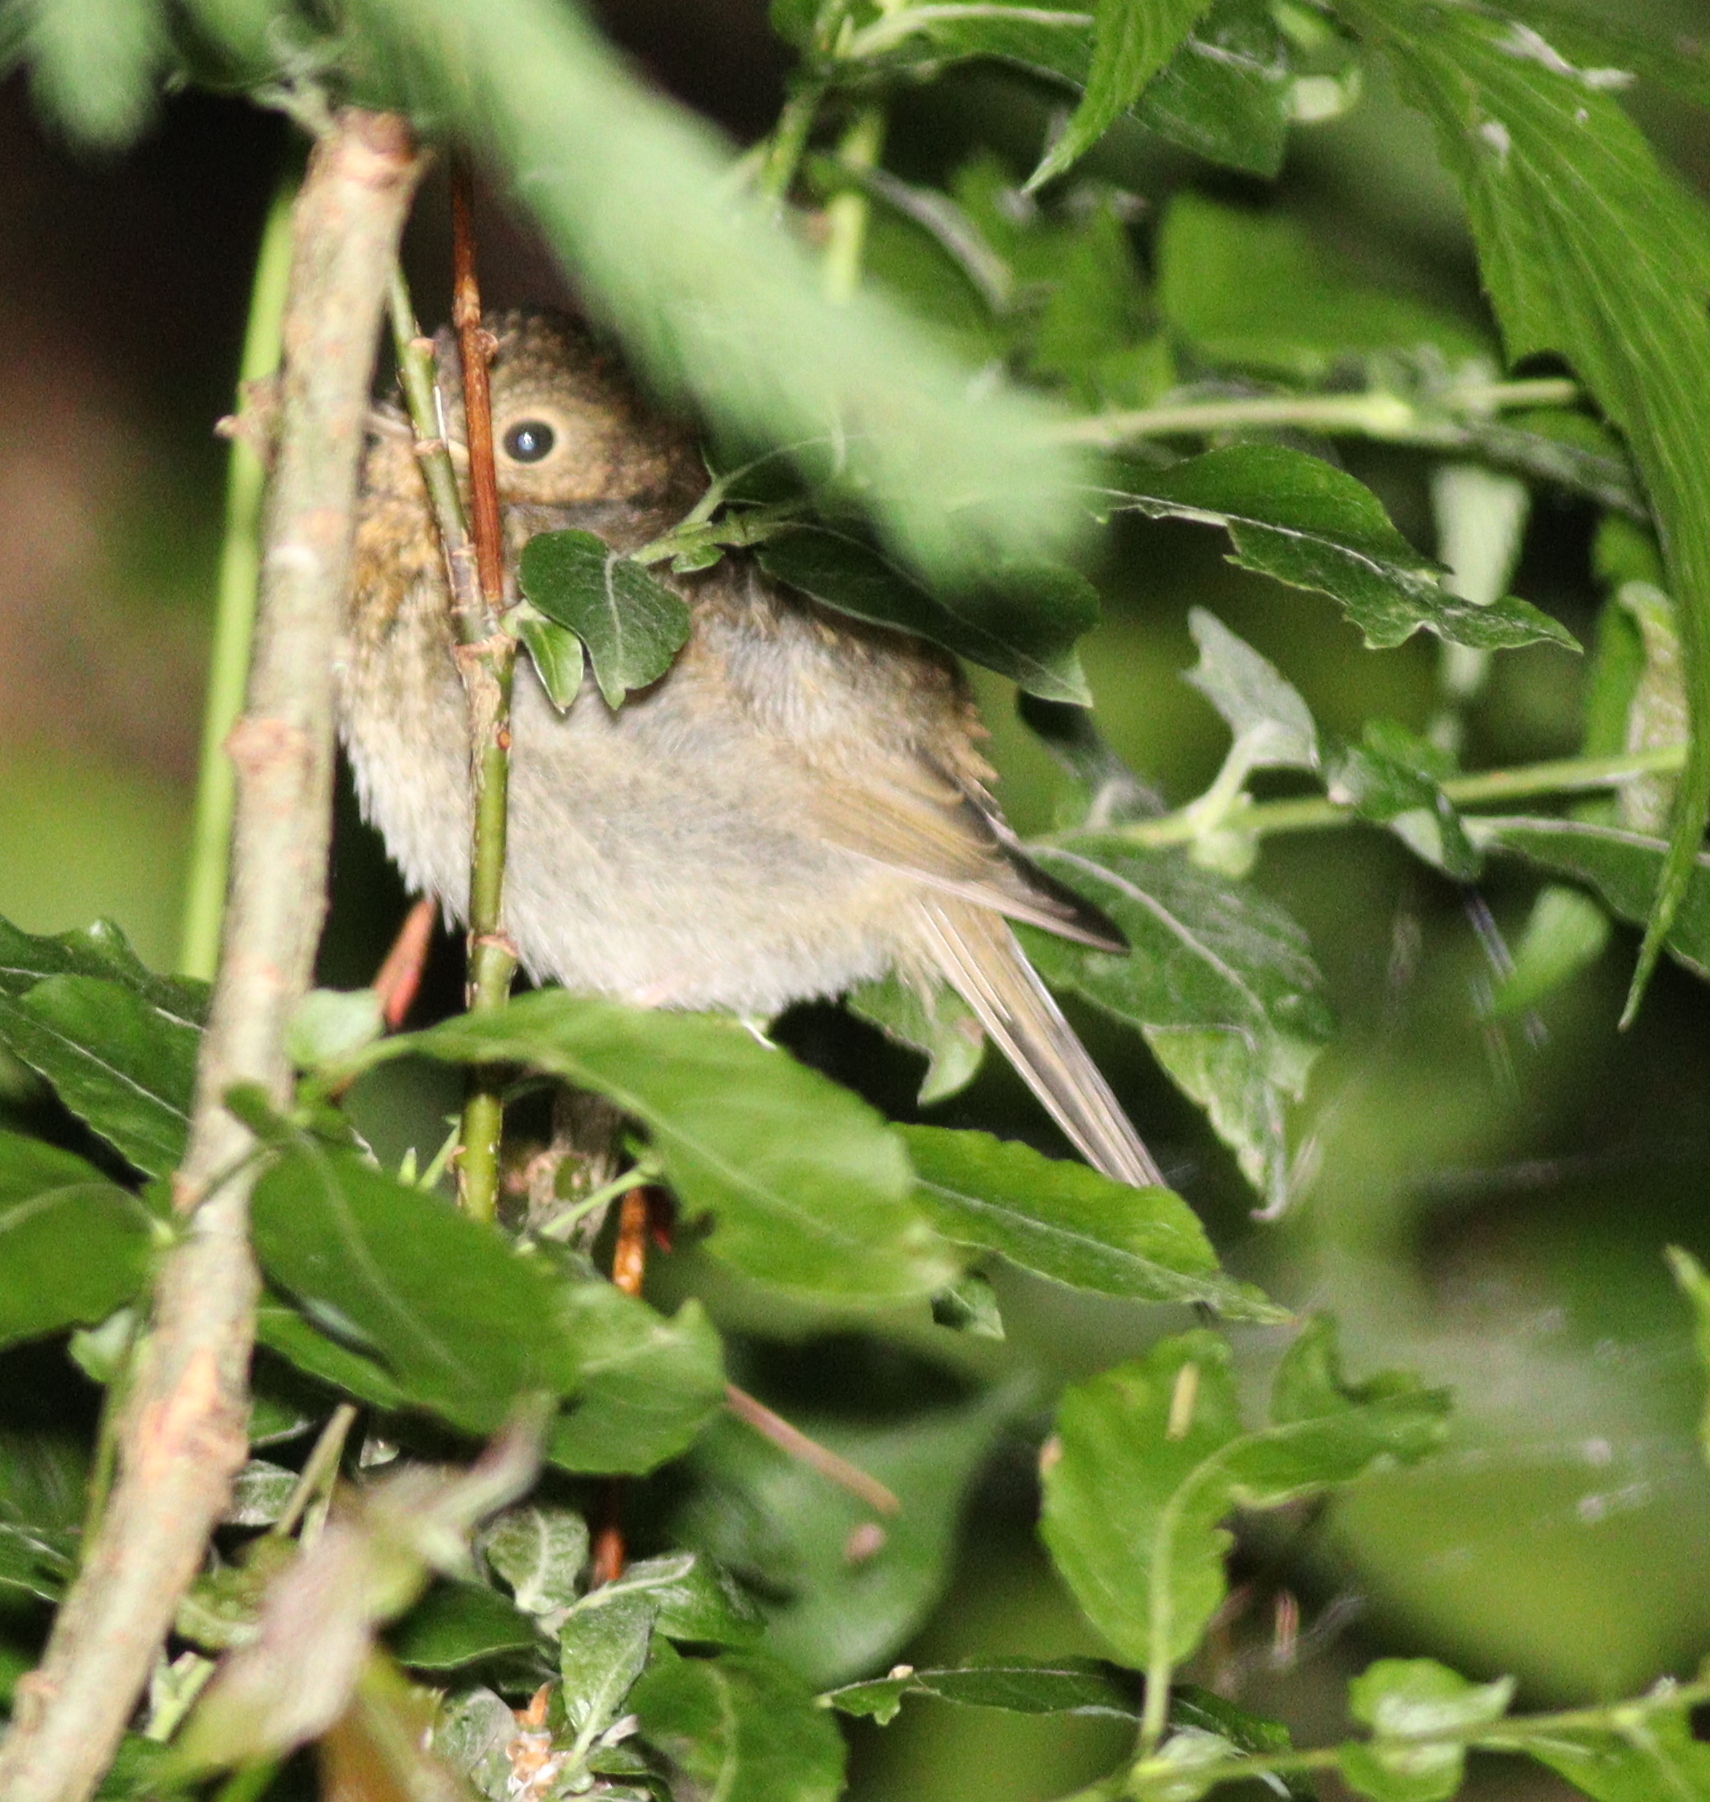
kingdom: Animalia
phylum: Chordata
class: Aves
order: Passeriformes
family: Muscicapidae
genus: Erithacus
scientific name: Erithacus rubecula
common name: European robin
